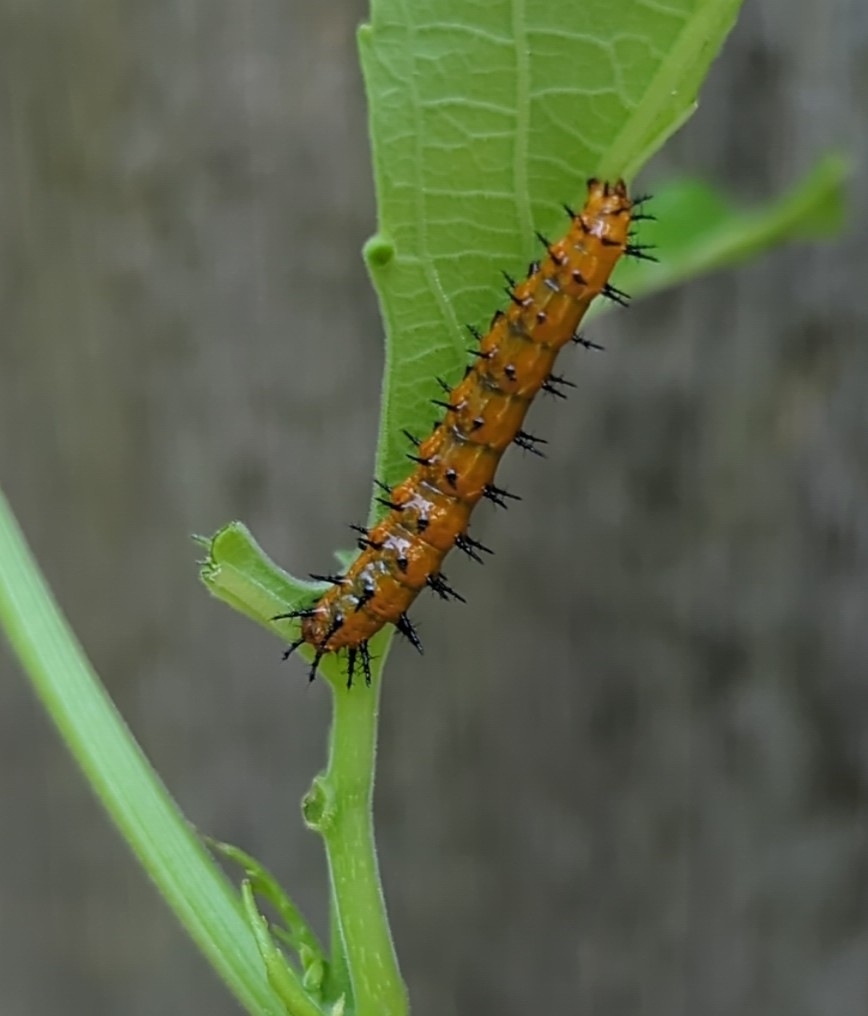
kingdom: Animalia
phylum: Arthropoda
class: Insecta
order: Lepidoptera
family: Nymphalidae
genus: Dione
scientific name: Dione vanillae
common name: Gulf fritillary
